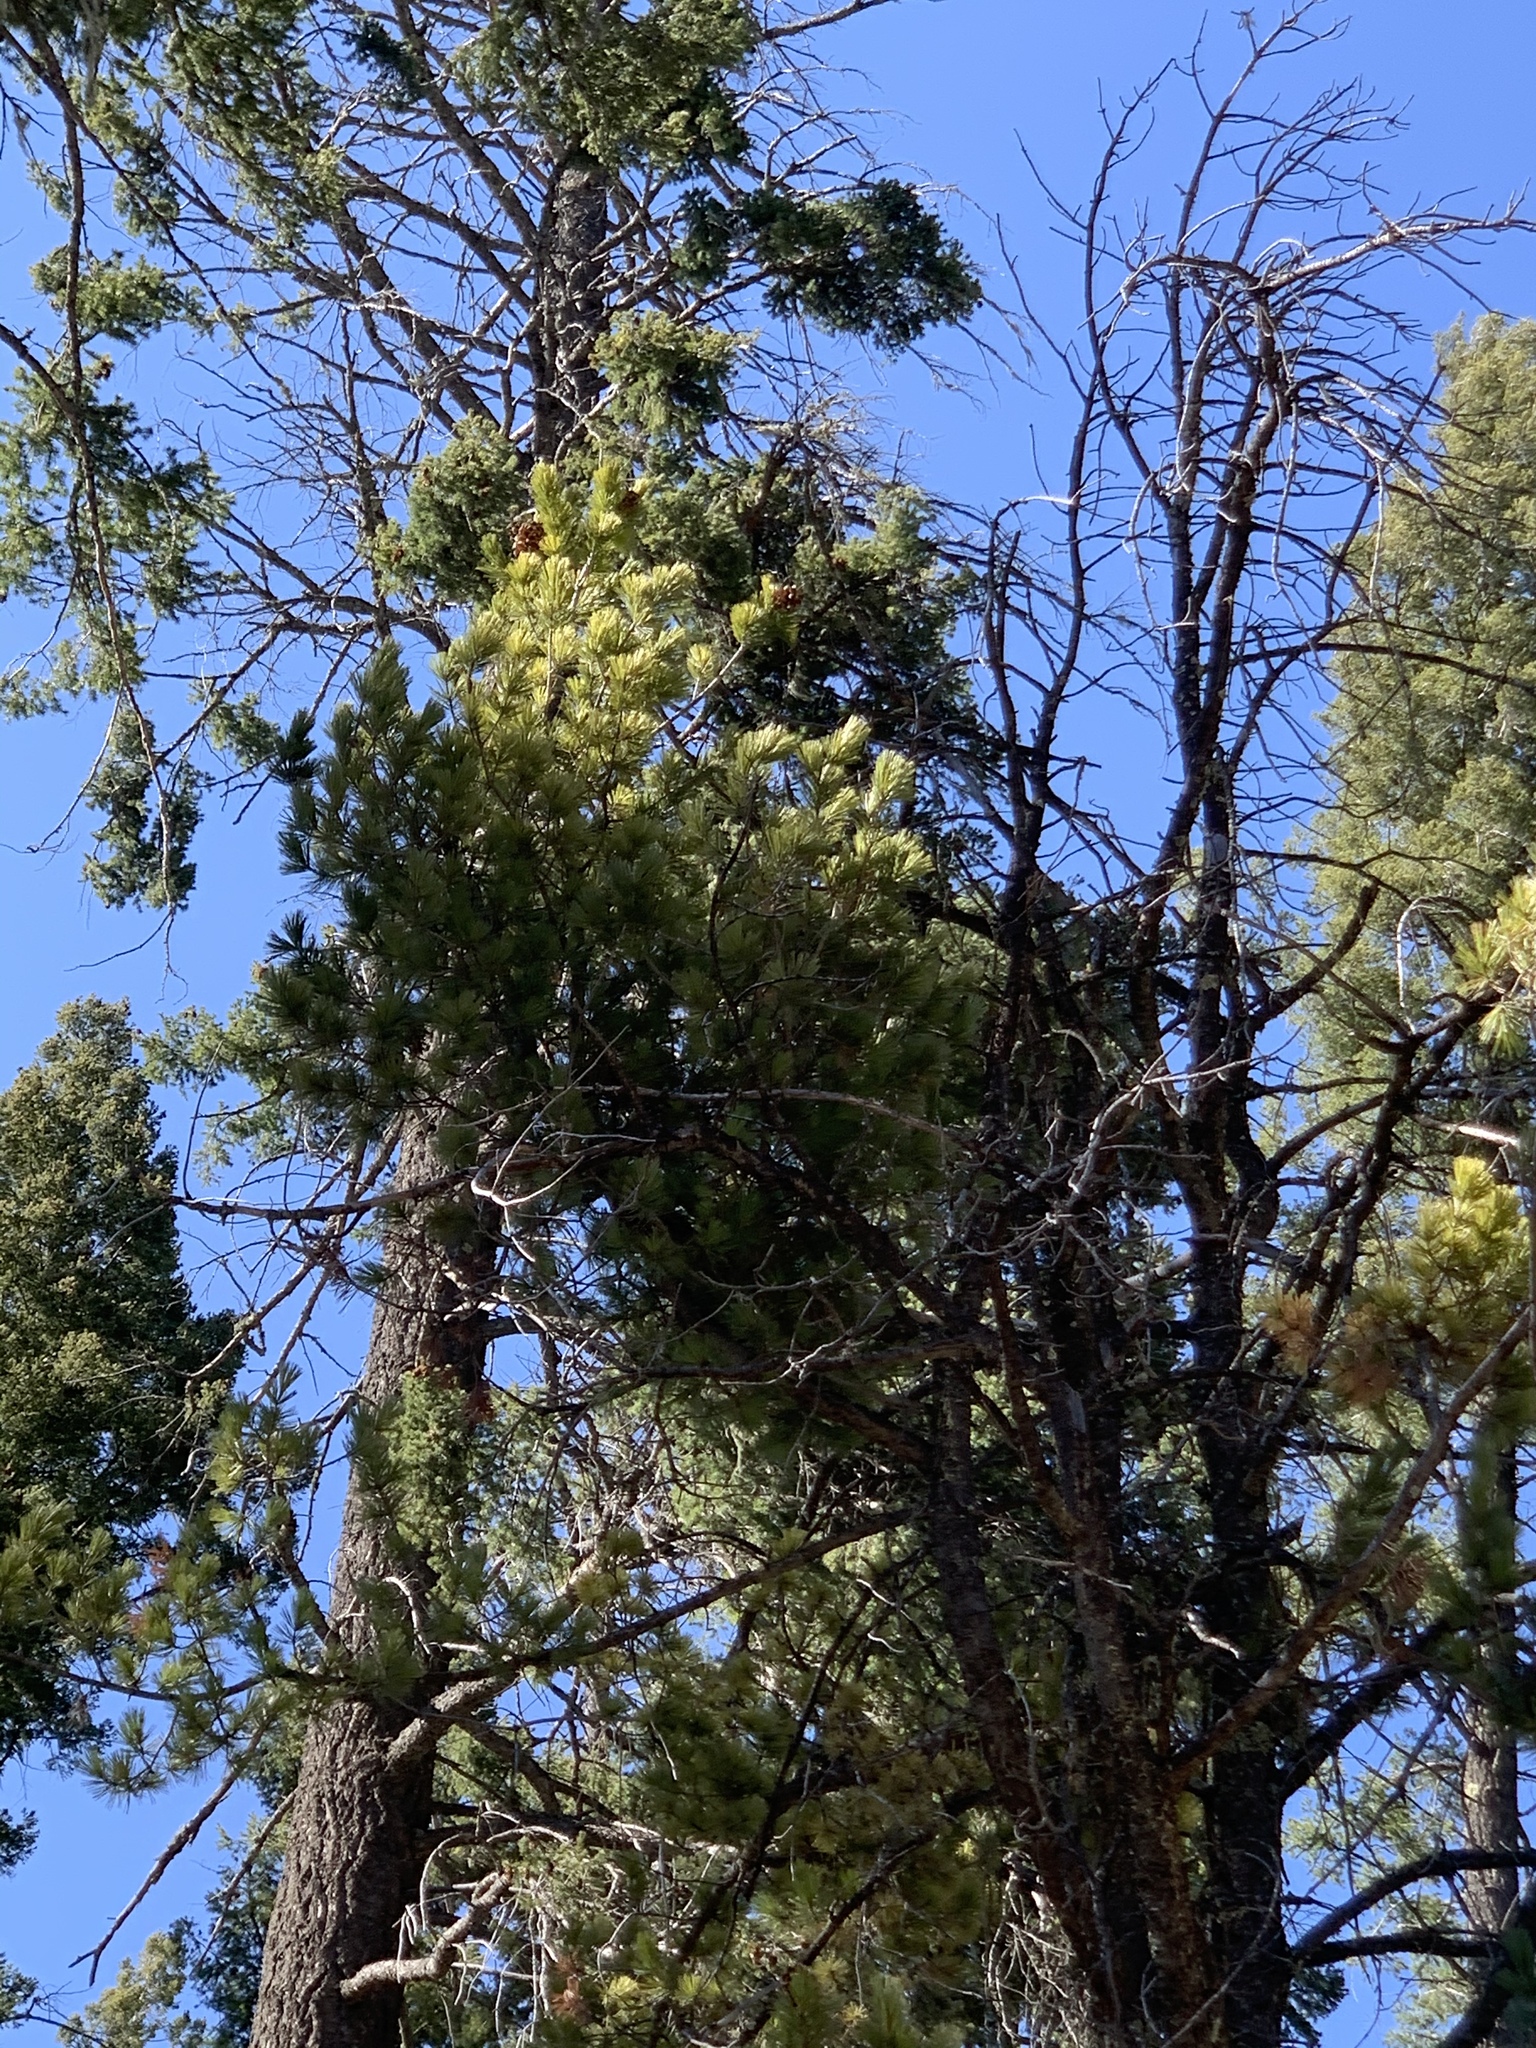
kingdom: Plantae
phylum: Tracheophyta
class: Pinopsida
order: Pinales
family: Pinaceae
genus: Pinus
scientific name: Pinus strobiformis
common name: Southwestern white pine
